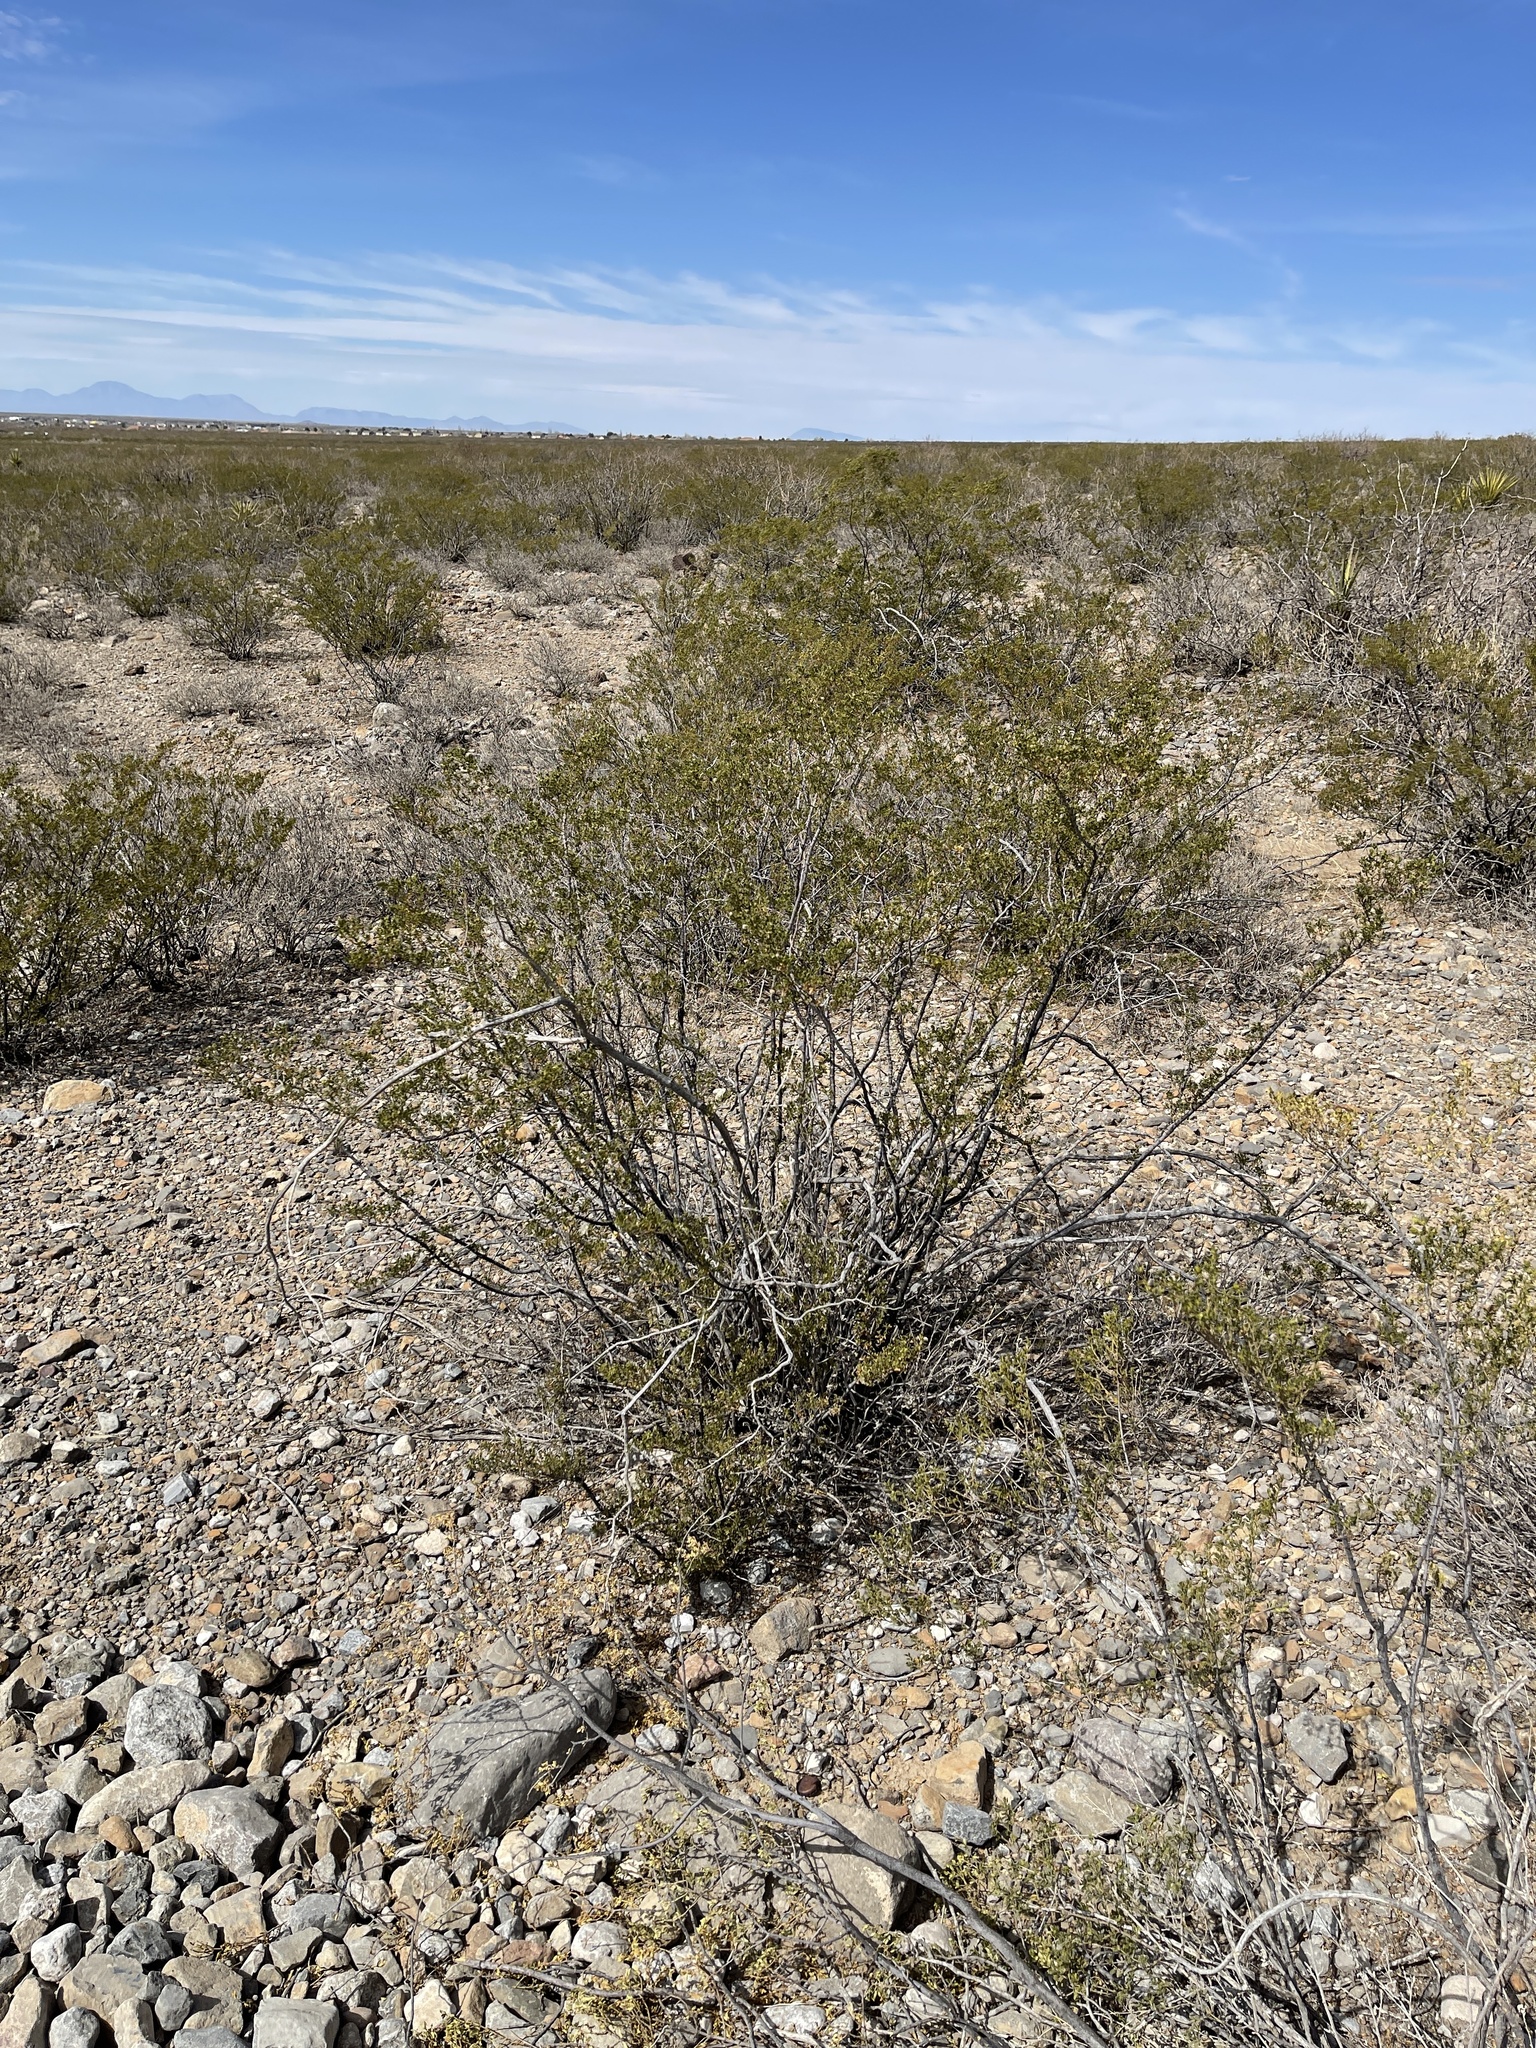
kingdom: Plantae
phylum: Tracheophyta
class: Magnoliopsida
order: Zygophyllales
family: Zygophyllaceae
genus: Larrea
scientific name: Larrea tridentata
